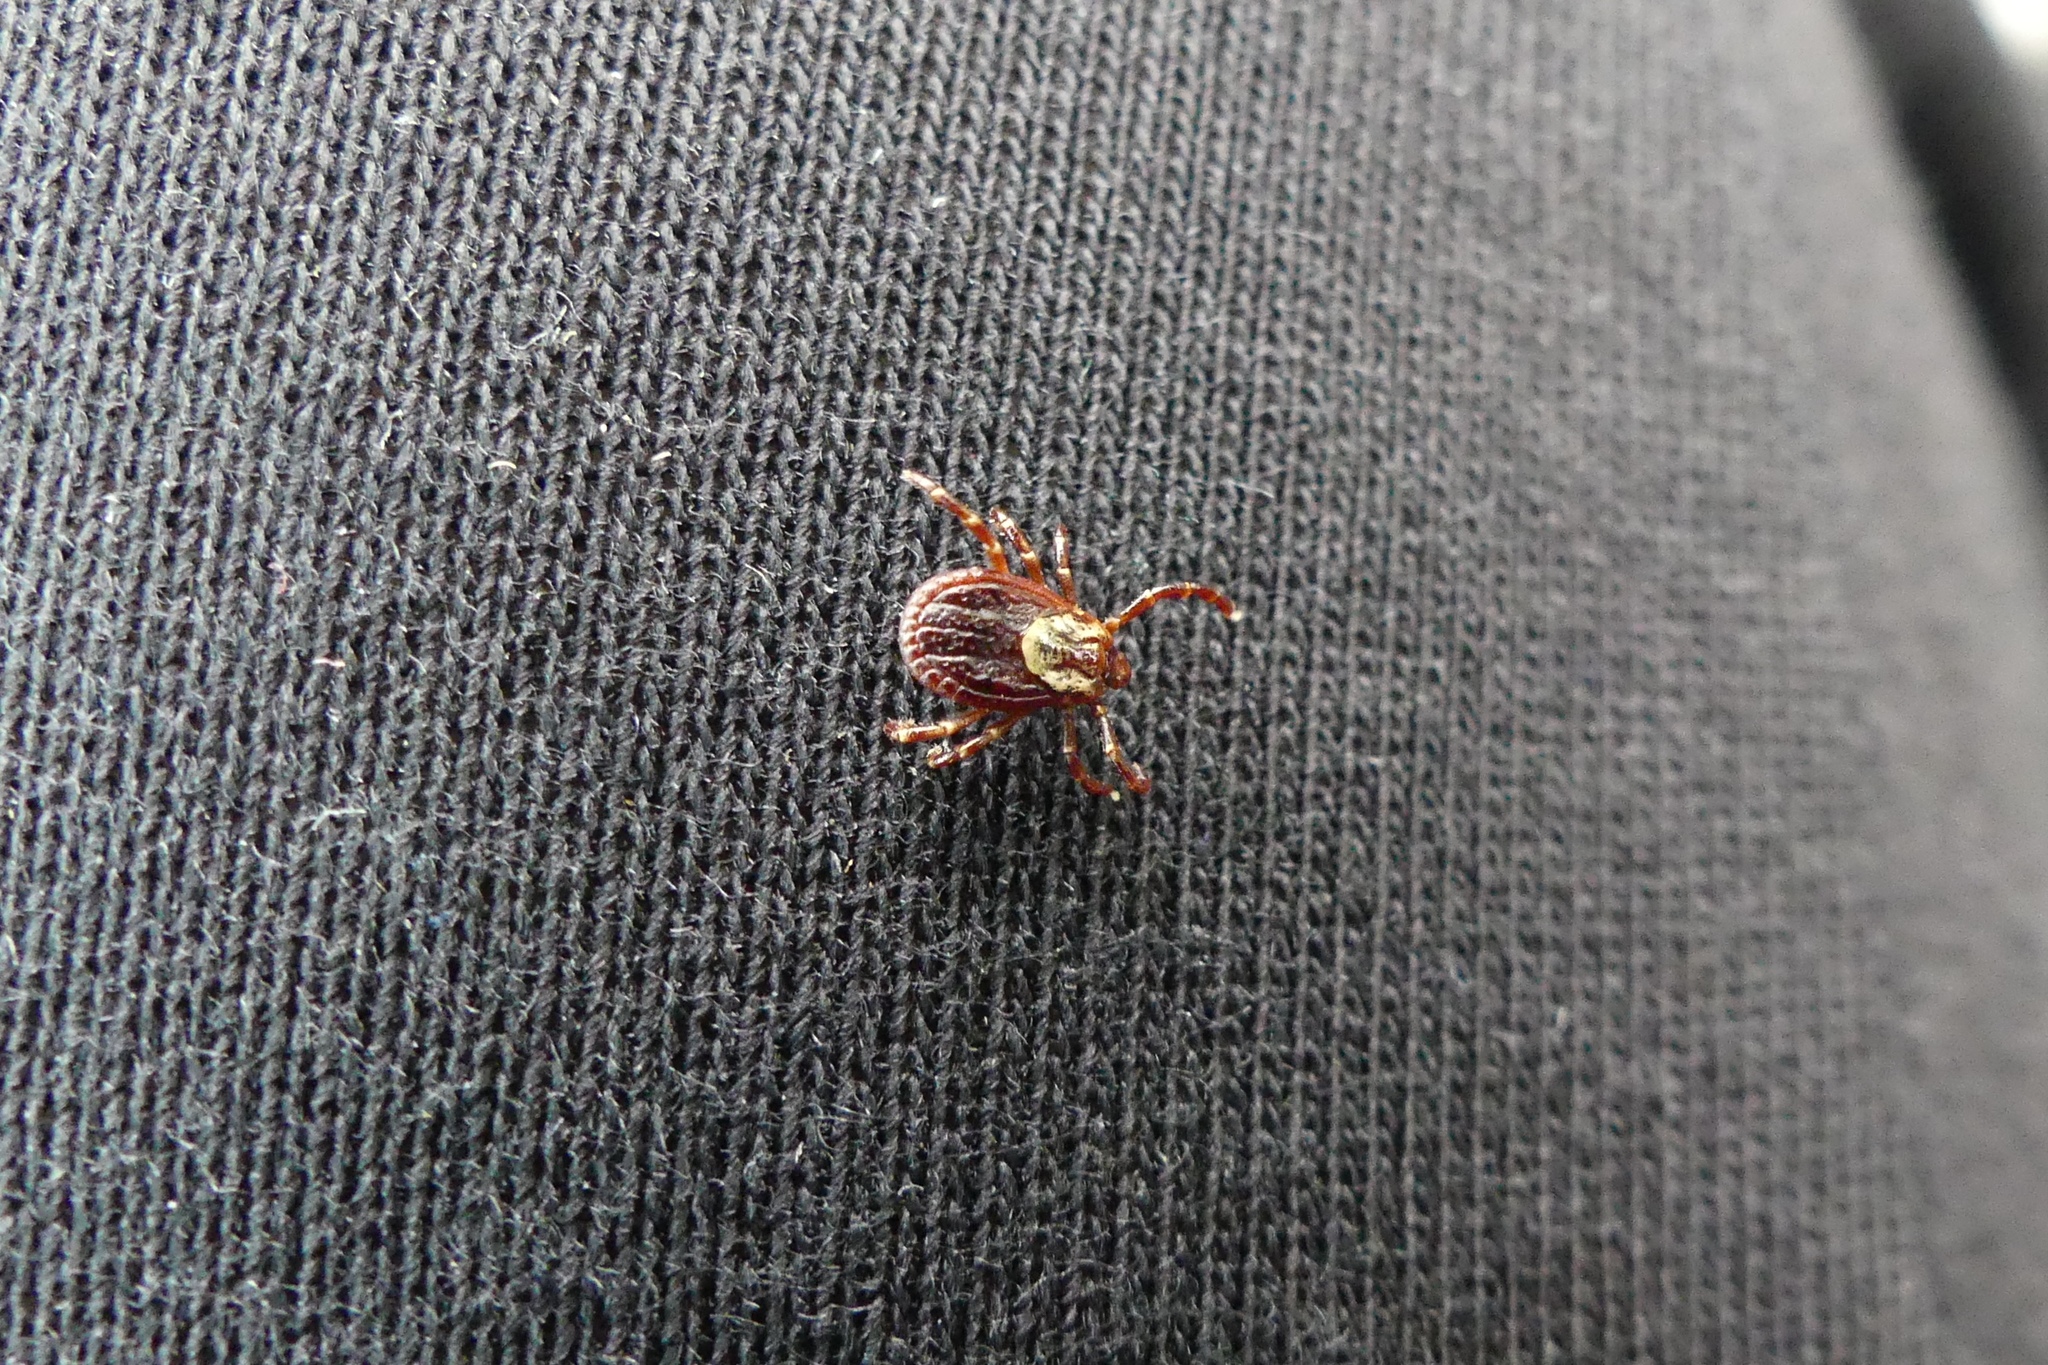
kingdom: Animalia
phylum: Arthropoda
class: Arachnida
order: Ixodida
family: Ixodidae
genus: Dermacentor
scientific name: Dermacentor variabilis
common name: American dog tick
